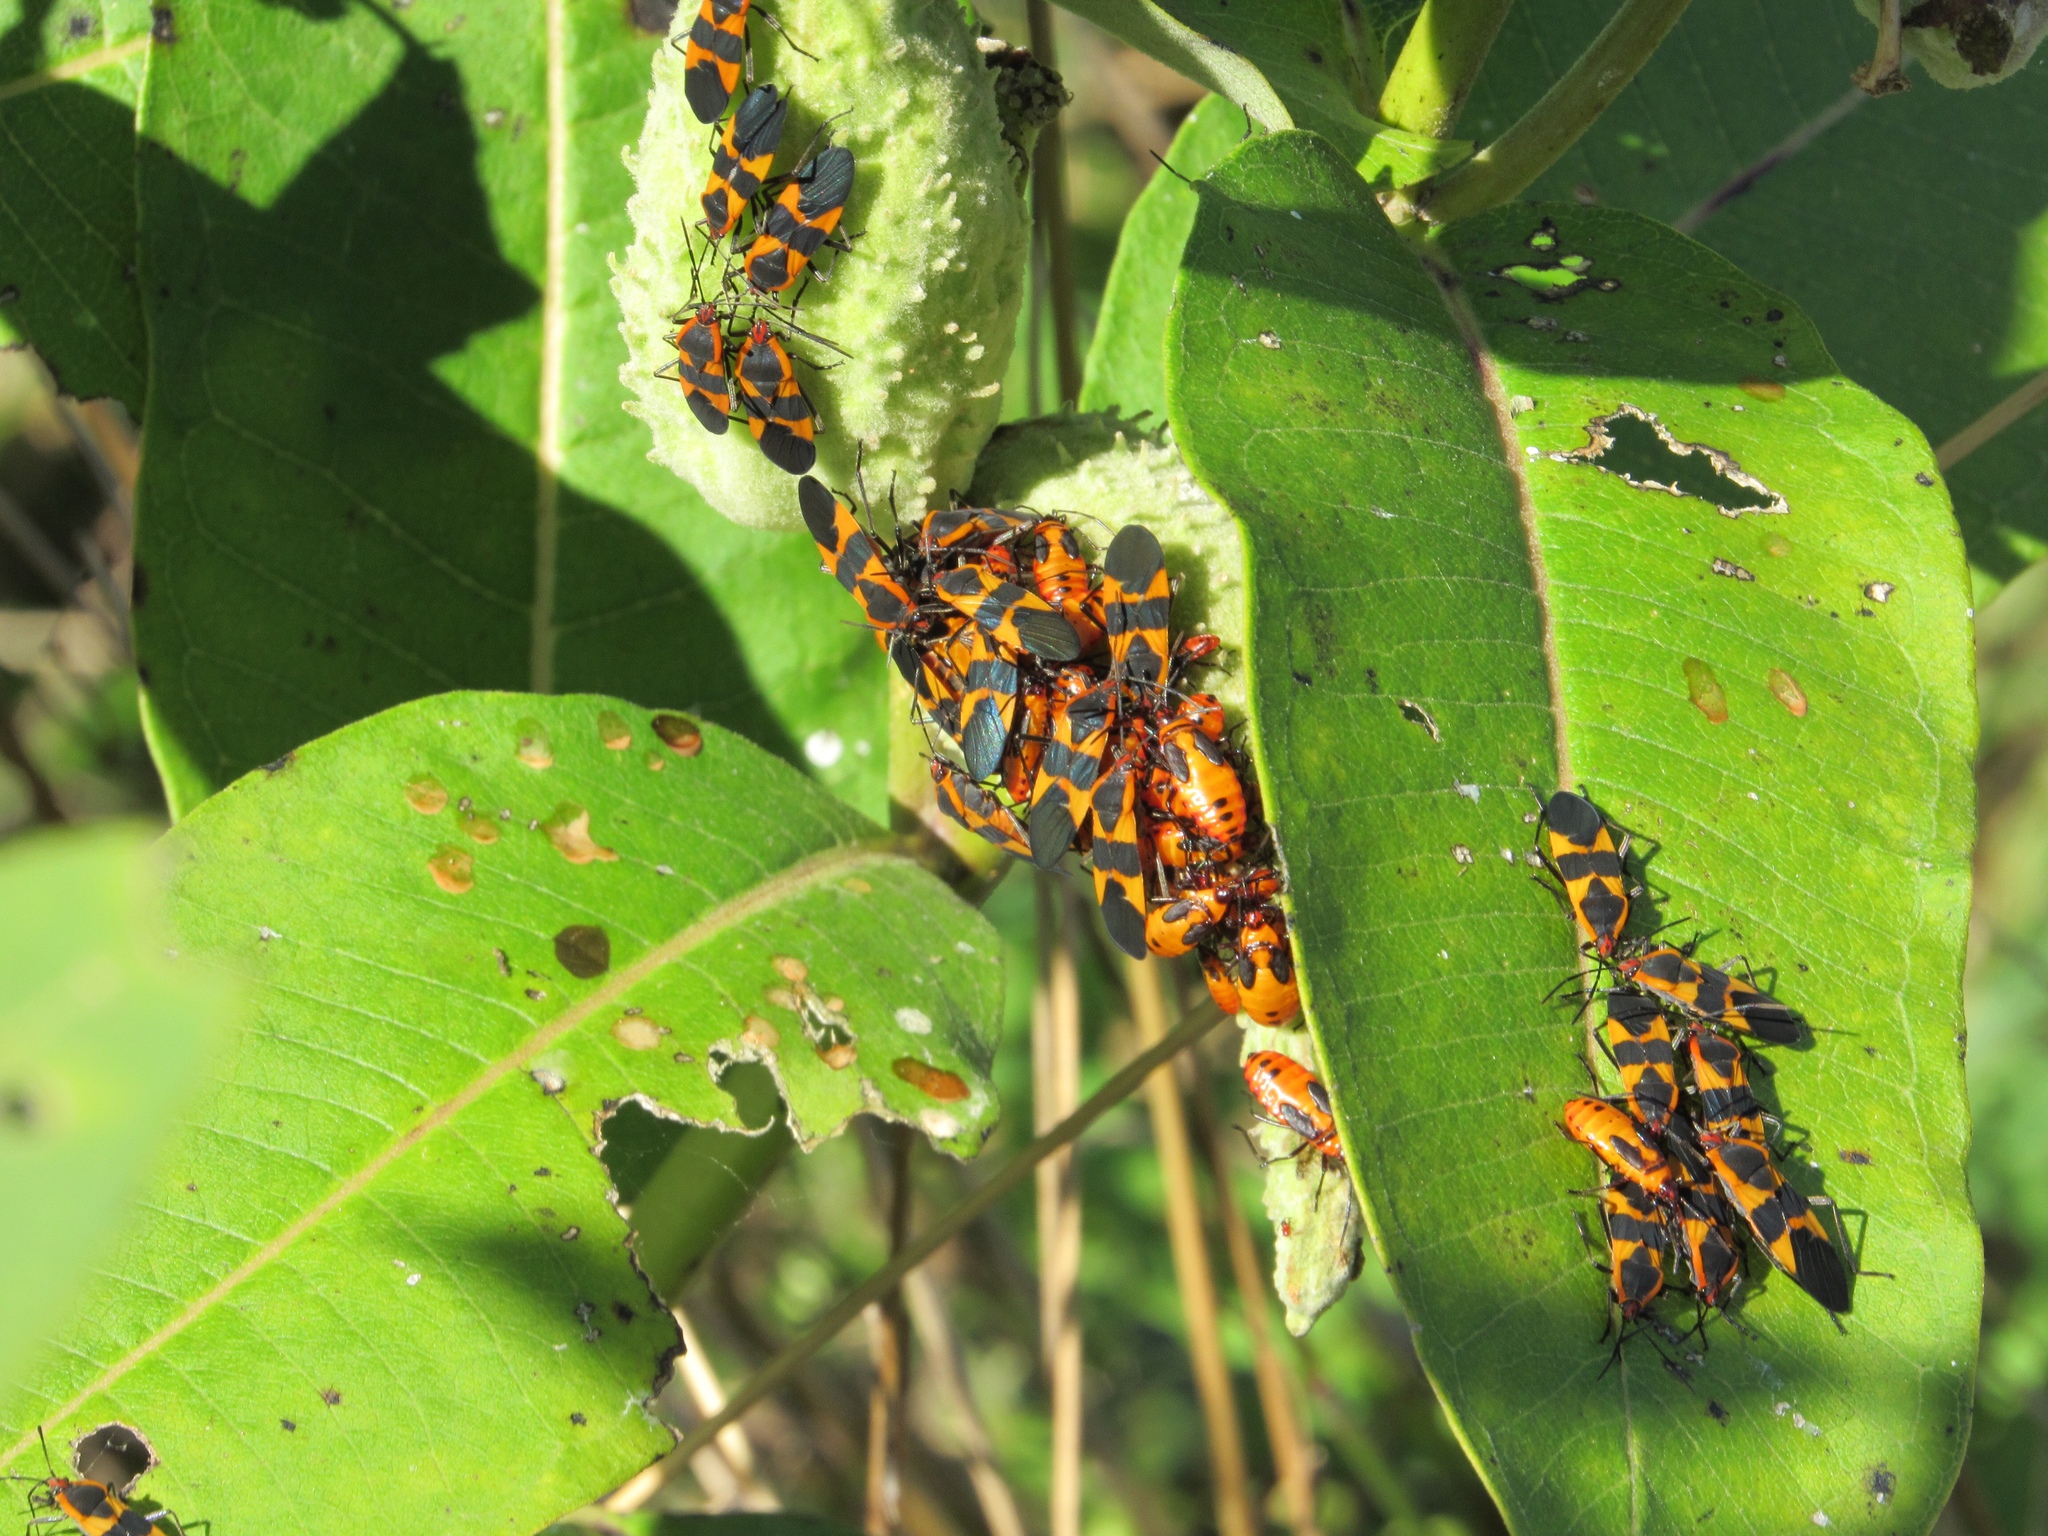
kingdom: Animalia
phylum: Arthropoda
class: Insecta
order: Hemiptera
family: Lygaeidae
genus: Oncopeltus
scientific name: Oncopeltus fasciatus
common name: Large milkweed bug
